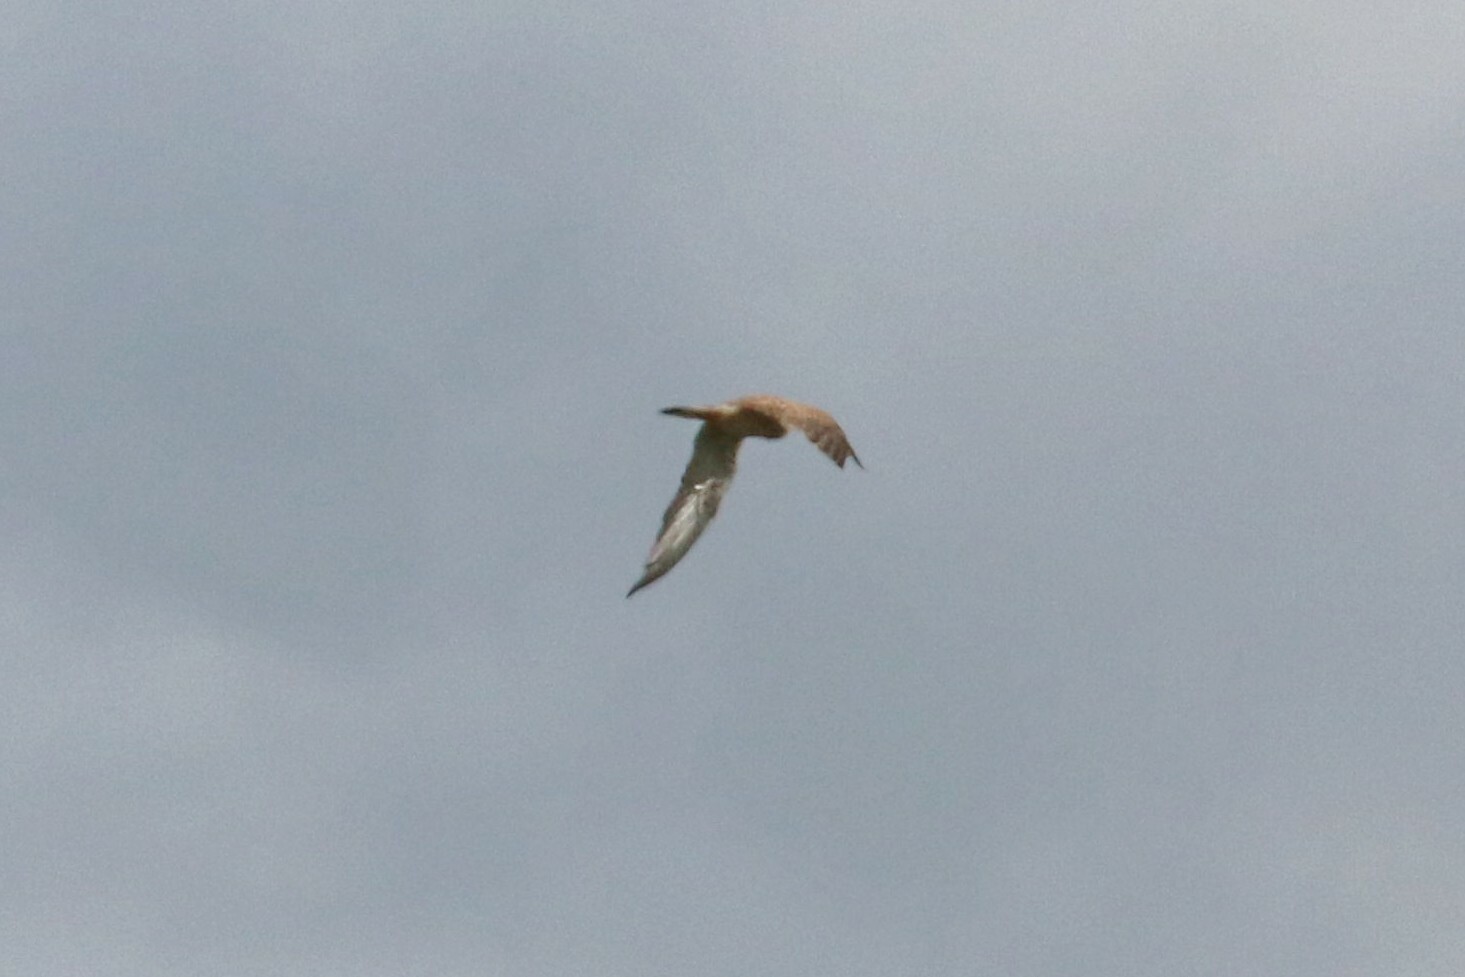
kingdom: Animalia
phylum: Chordata
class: Aves
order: Falconiformes
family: Falconidae
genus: Falco
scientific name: Falco tinnunculus
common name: Common kestrel
